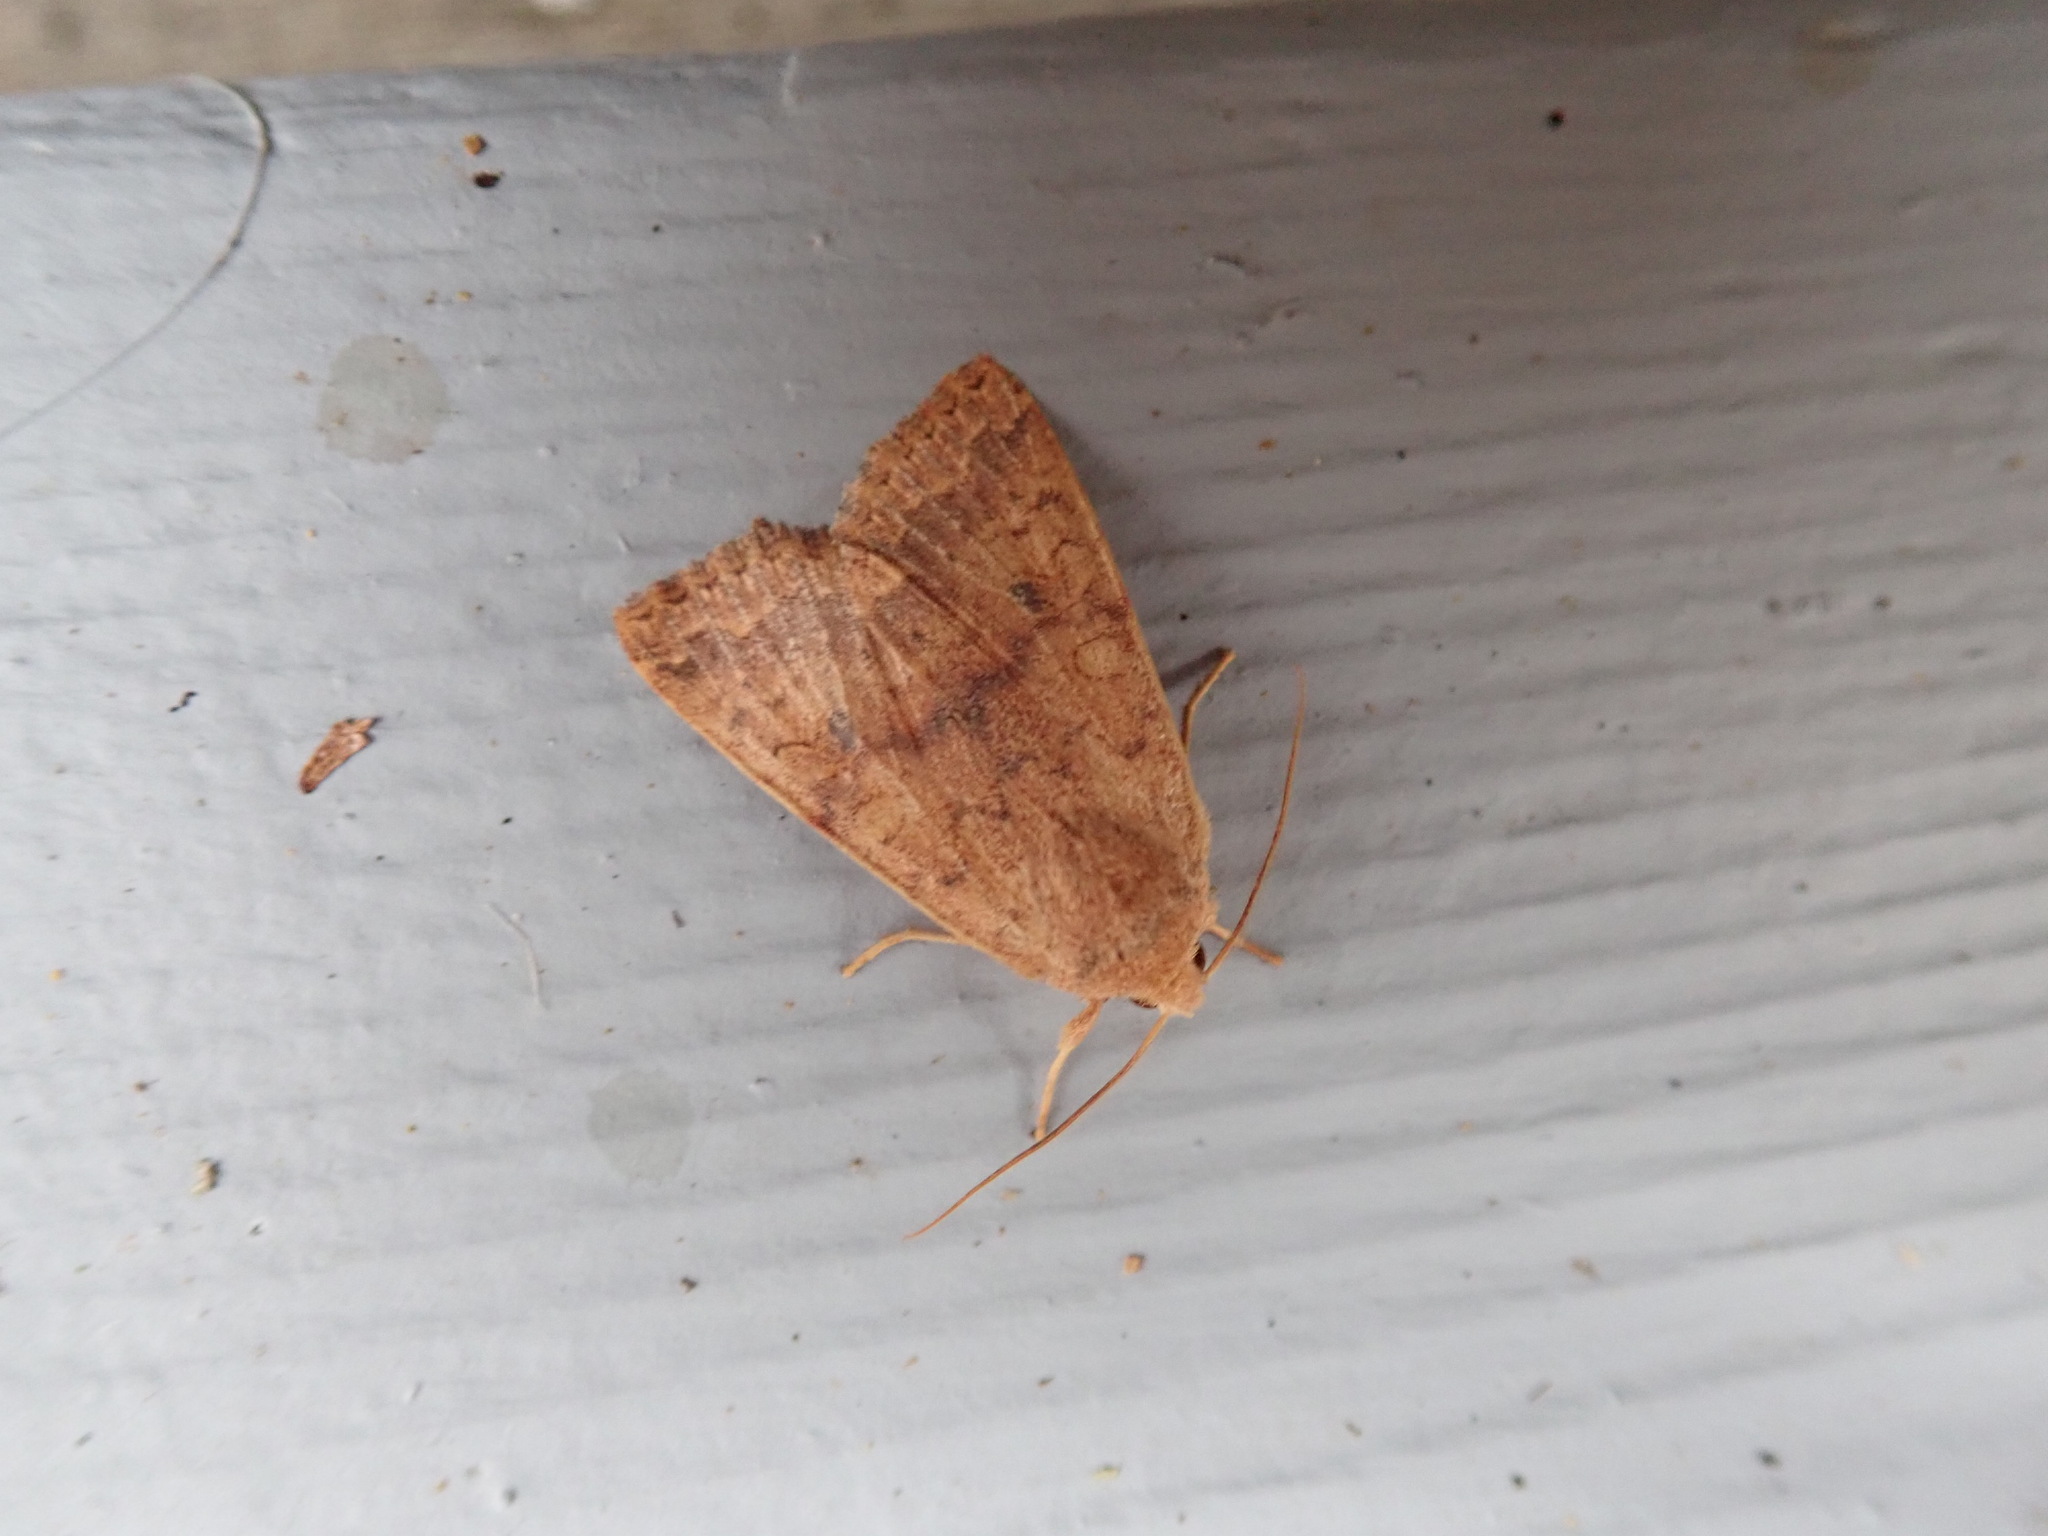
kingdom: Animalia
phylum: Arthropoda
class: Insecta
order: Lepidoptera
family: Noctuidae
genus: Agrochola
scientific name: Agrochola bicolorago
